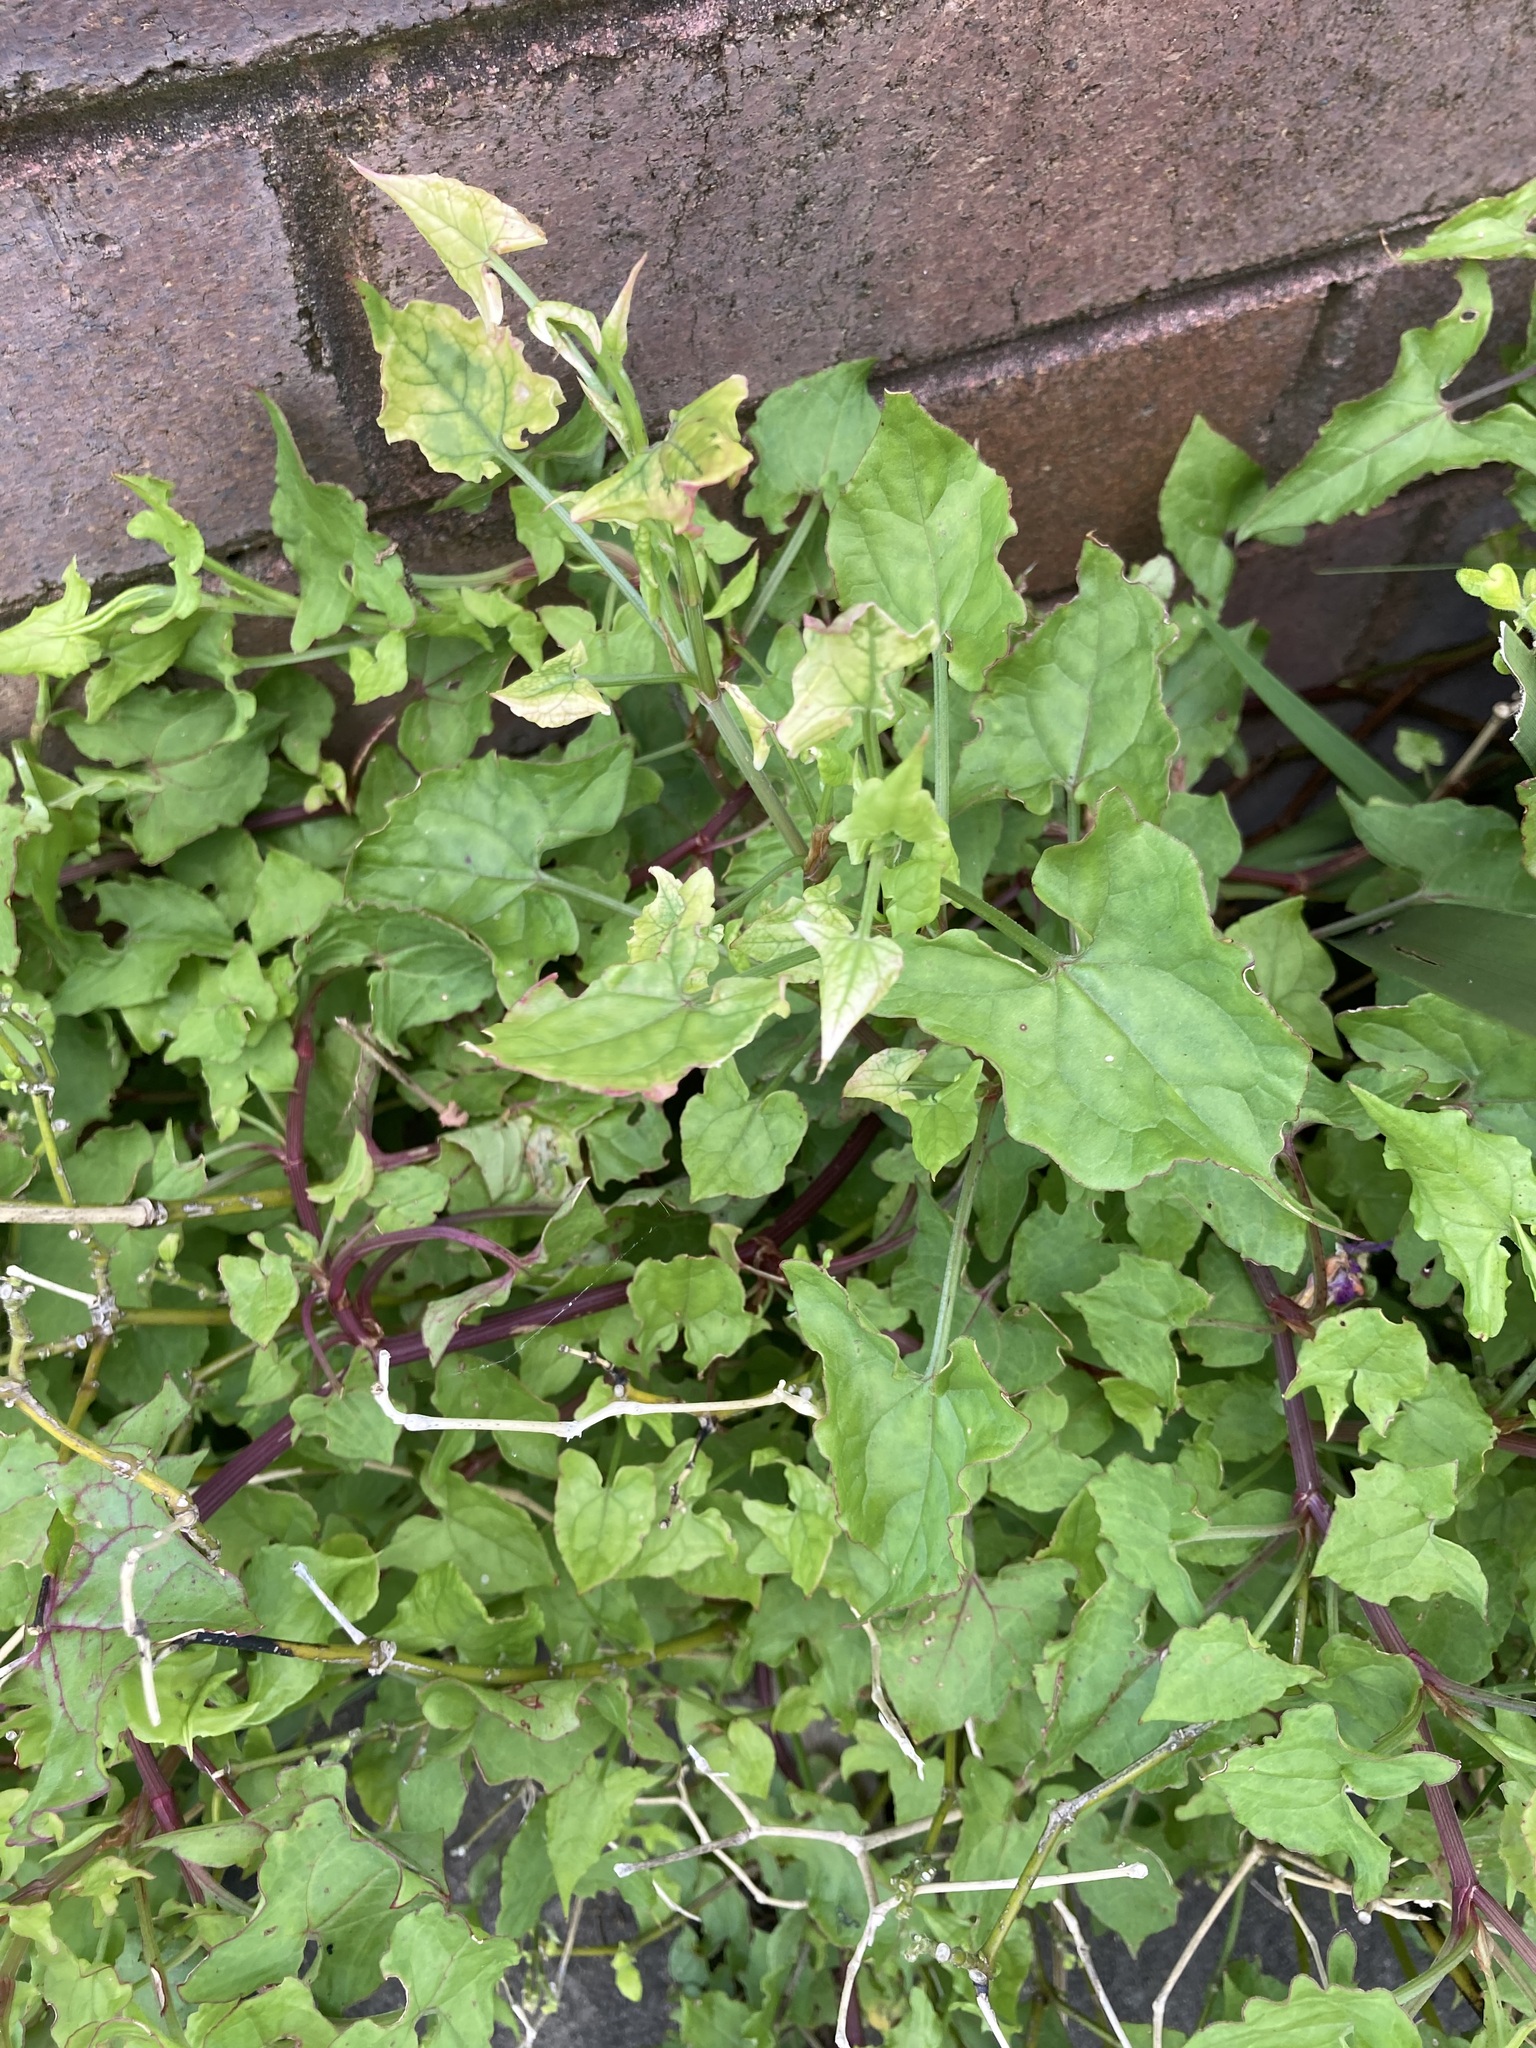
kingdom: Plantae
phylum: Tracheophyta
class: Magnoliopsida
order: Caryophyllales
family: Polygonaceae
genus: Rumex
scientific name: Rumex sagittatus
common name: Climbing dock
